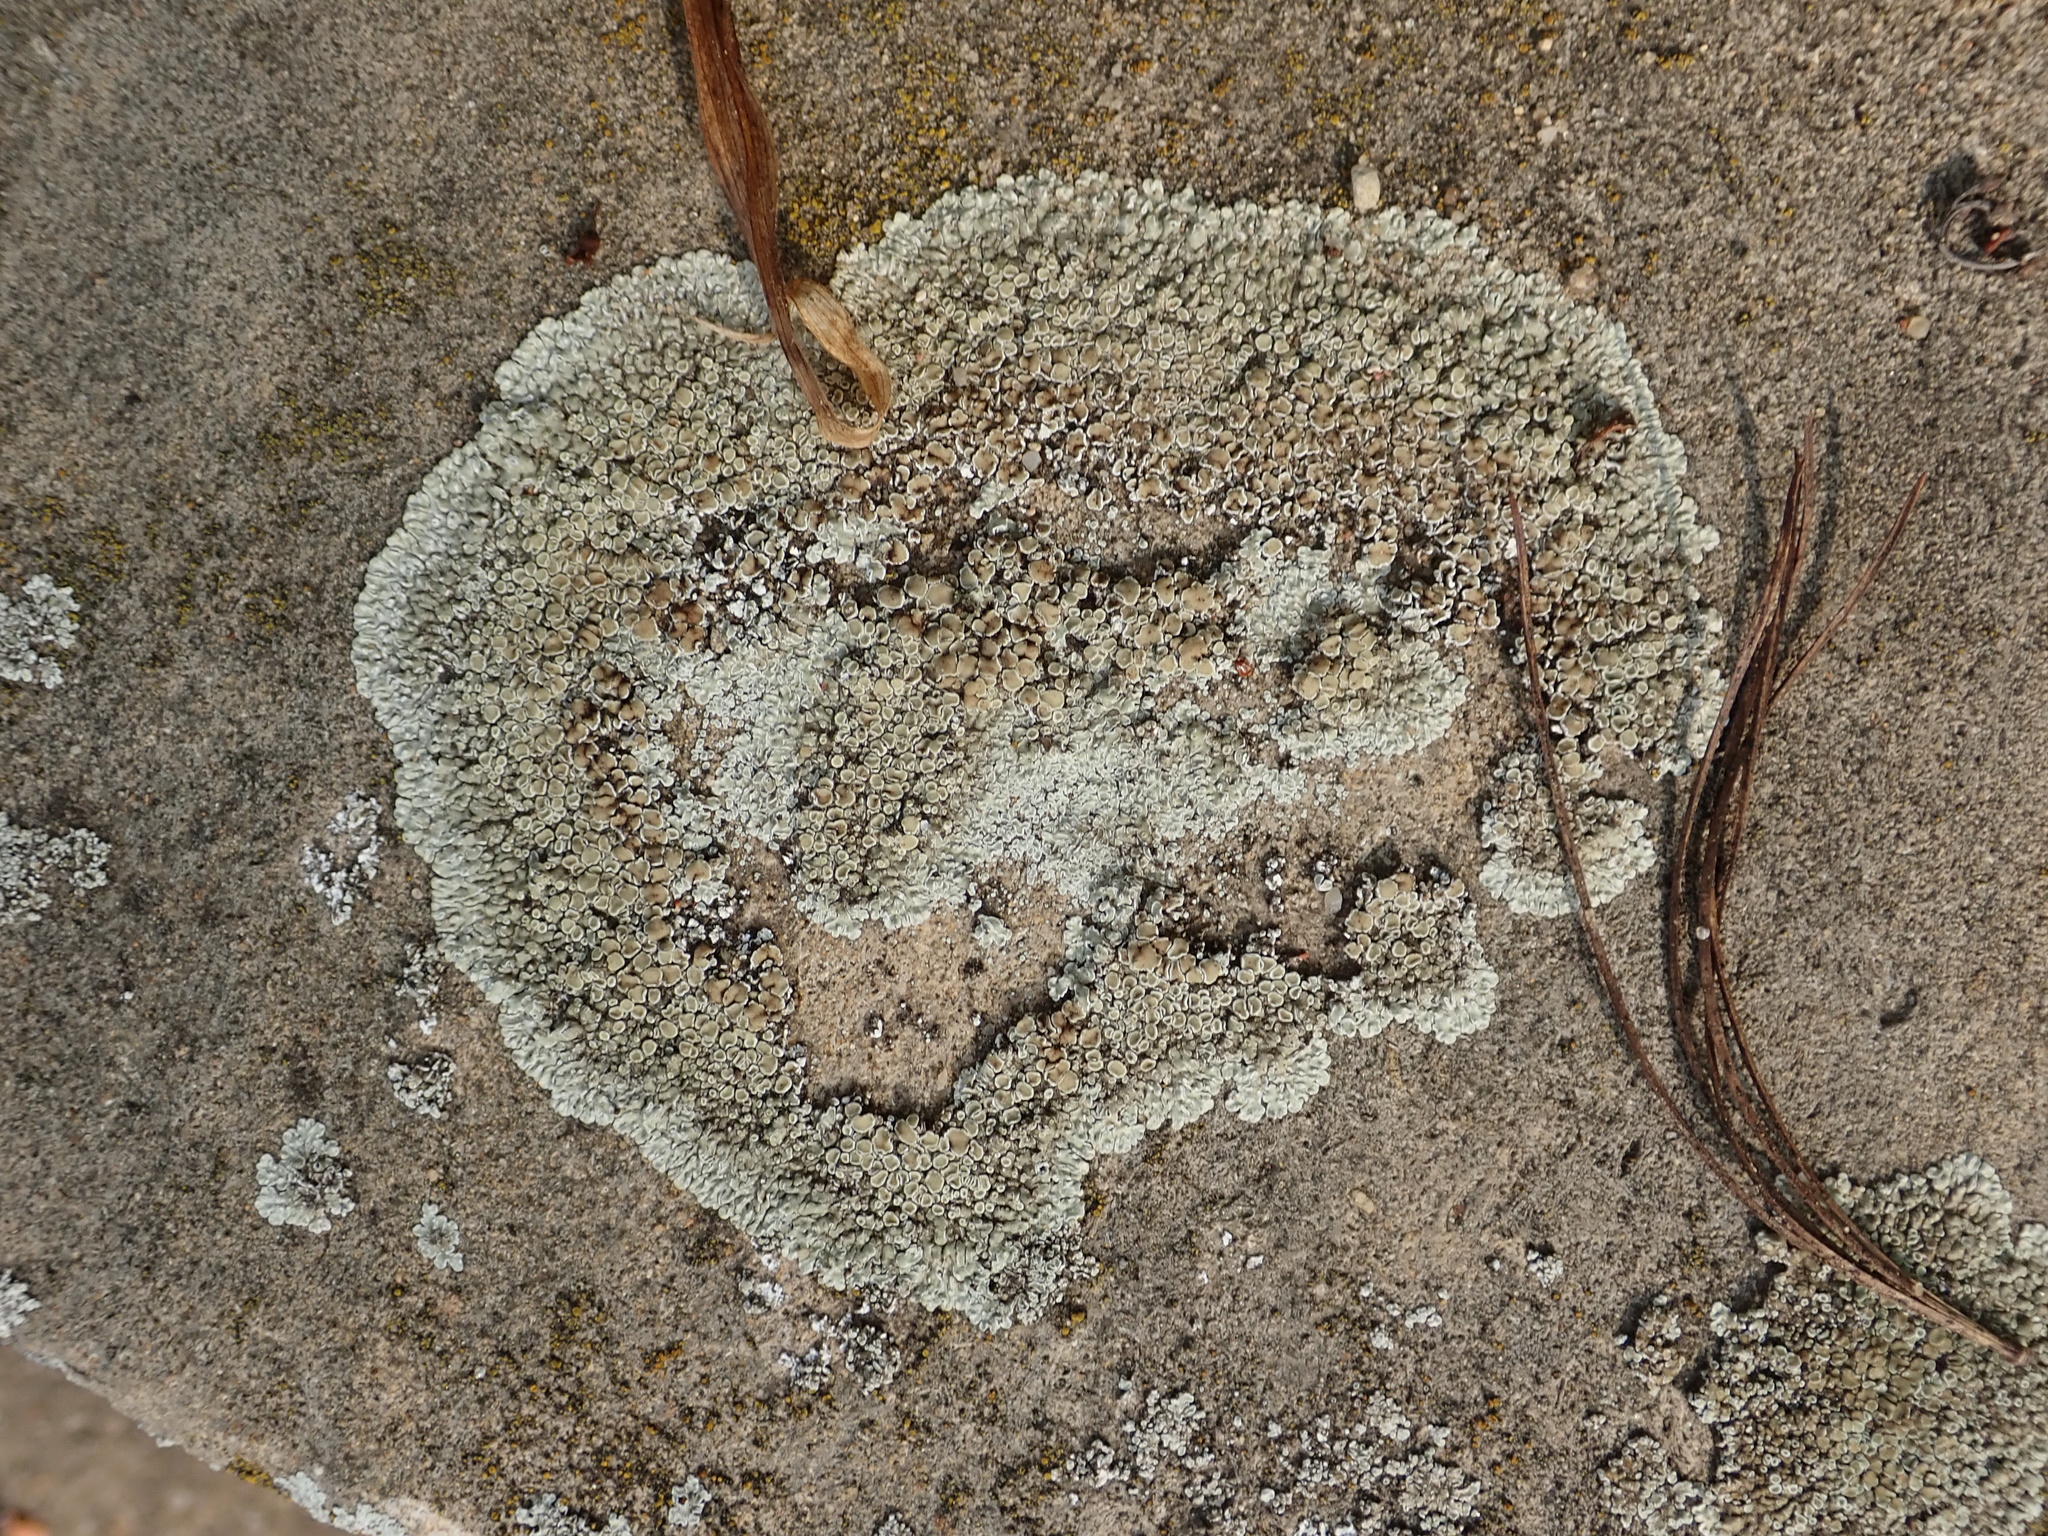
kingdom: Fungi
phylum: Ascomycota
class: Lecanoromycetes
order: Lecanorales
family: Lecanoraceae
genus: Protoparmeliopsis
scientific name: Protoparmeliopsis muralis
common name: Stonewall rim lichen
